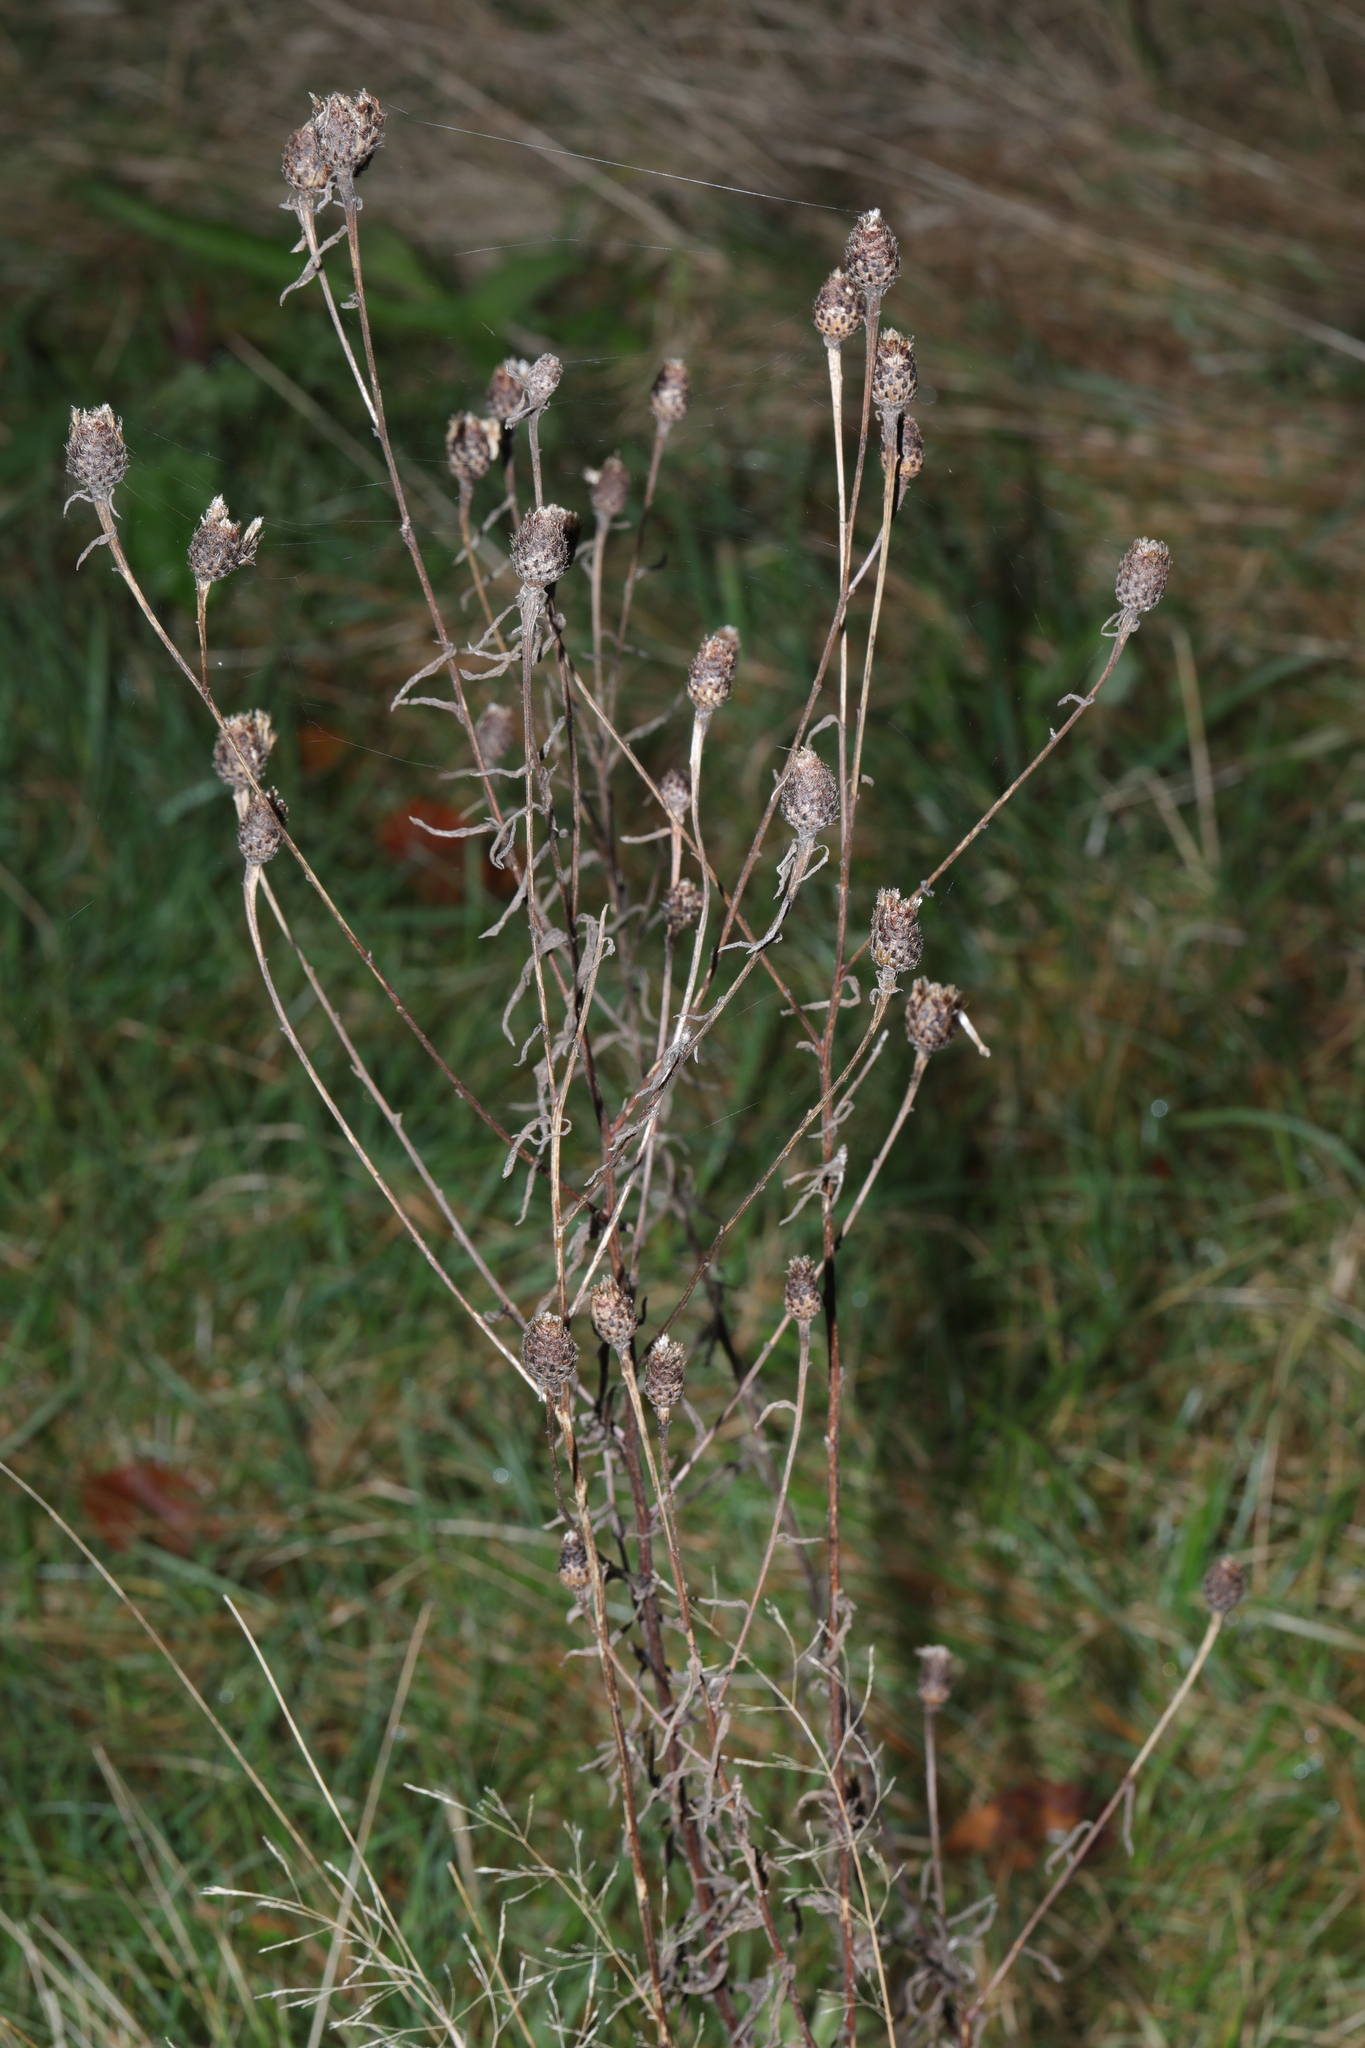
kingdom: Plantae
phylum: Tracheophyta
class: Magnoliopsida
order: Asterales
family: Asteraceae
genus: Centaurea
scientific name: Centaurea nigra
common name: Lesser knapweed
